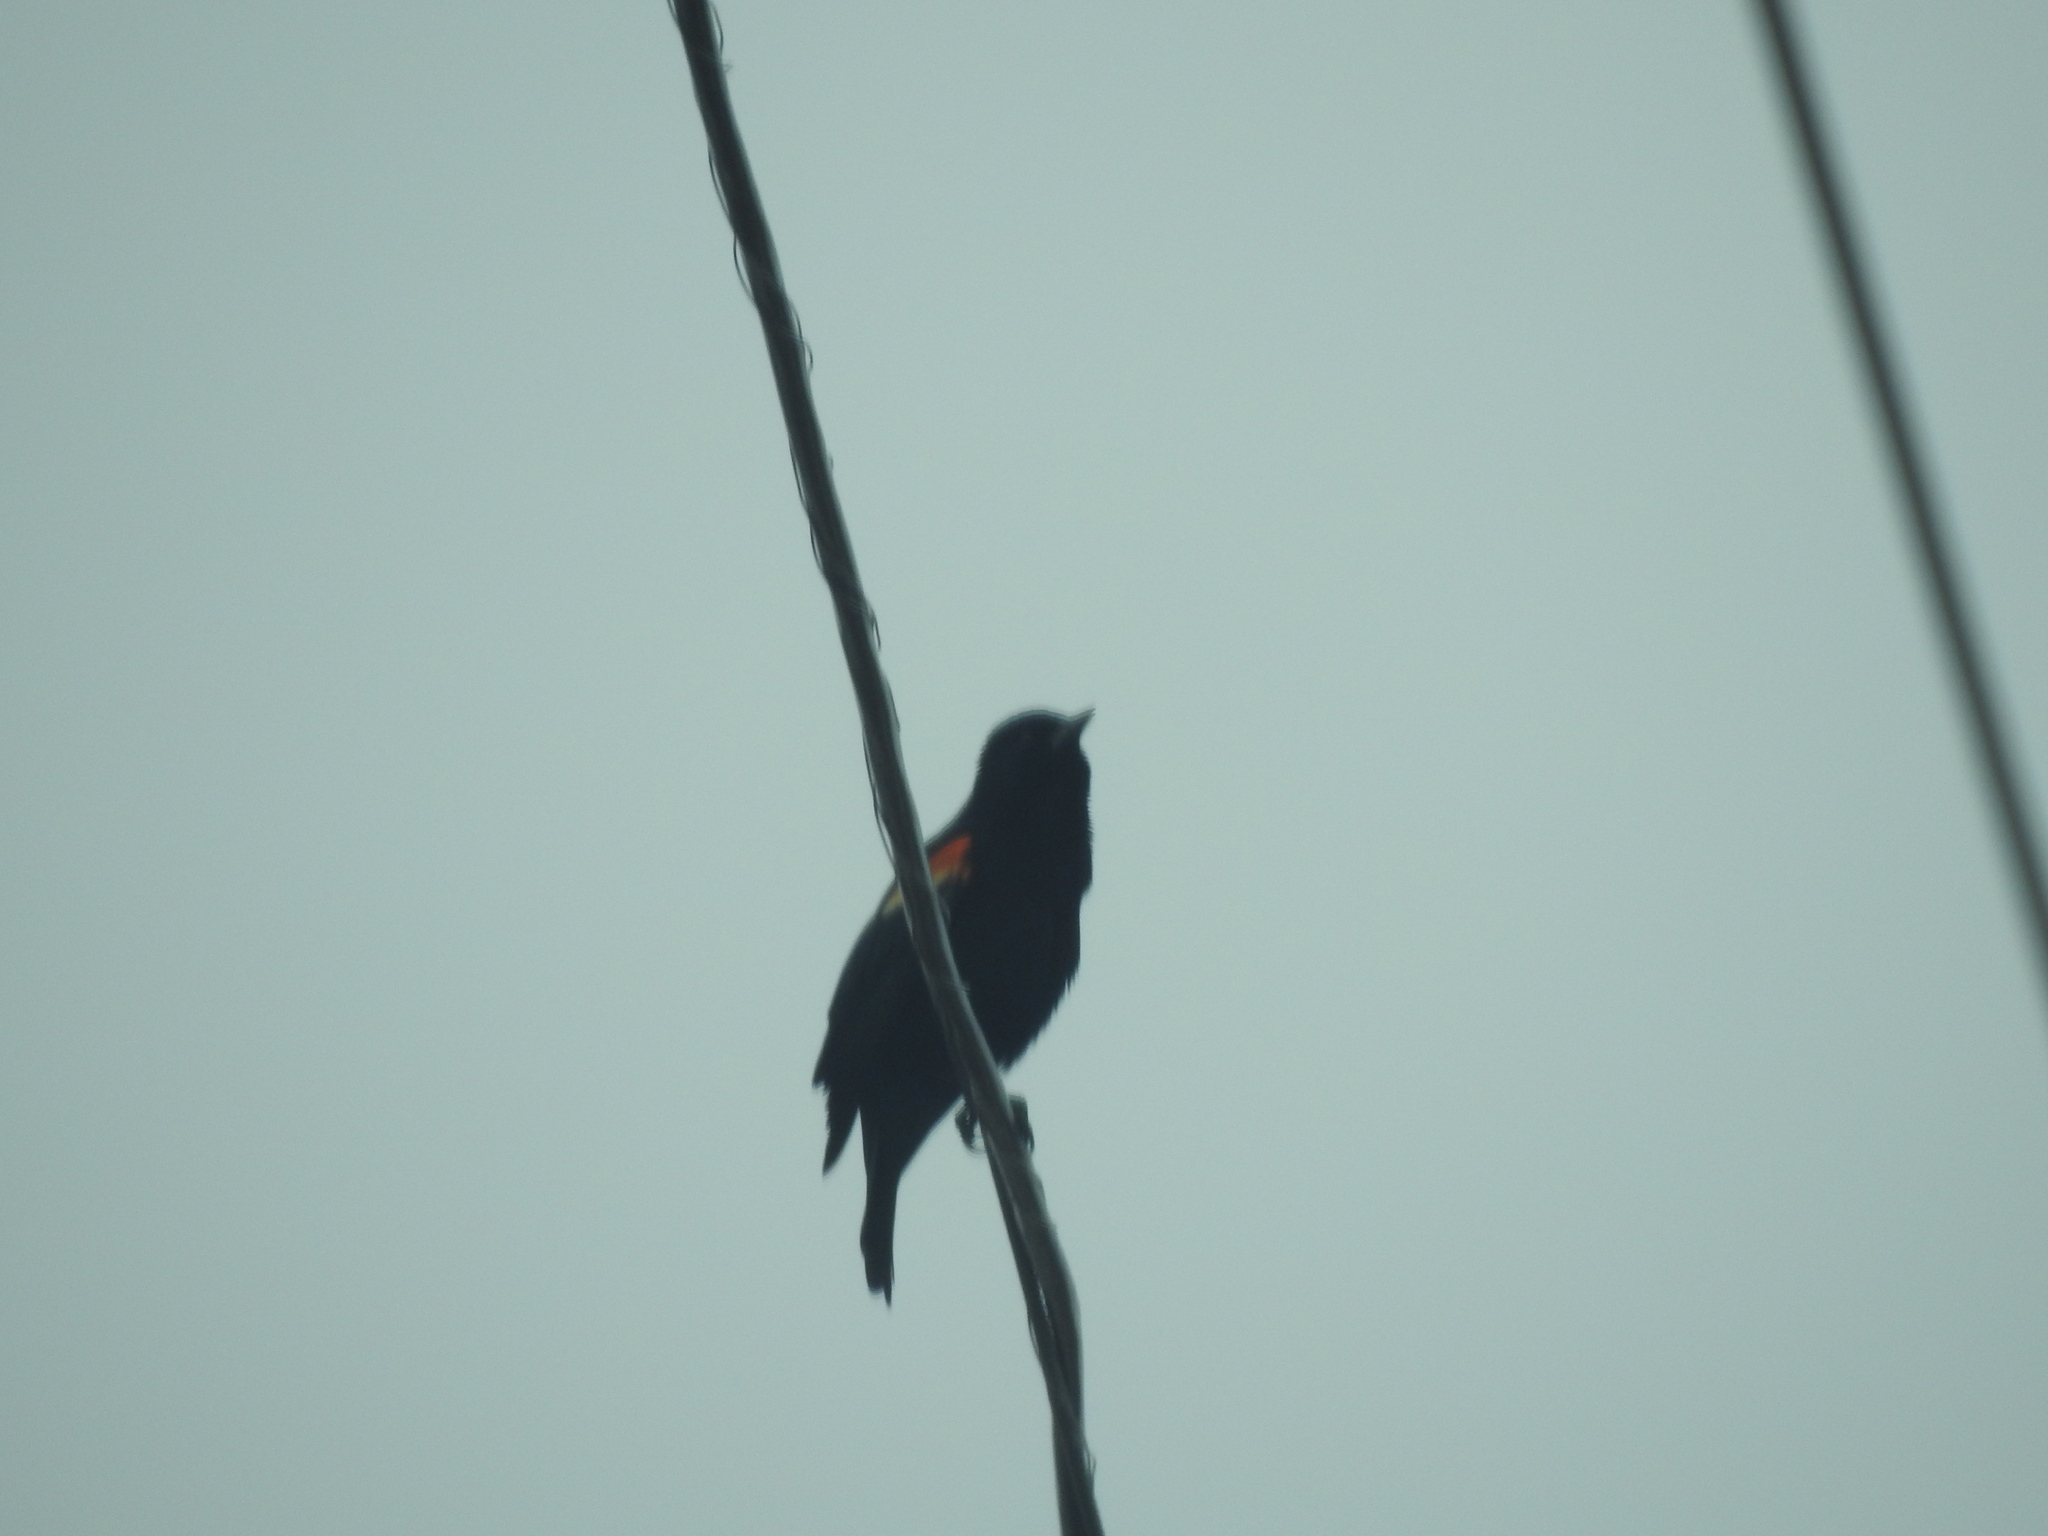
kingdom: Animalia
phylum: Chordata
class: Aves
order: Passeriformes
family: Icteridae
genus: Agelaius
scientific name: Agelaius phoeniceus
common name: Red-winged blackbird
